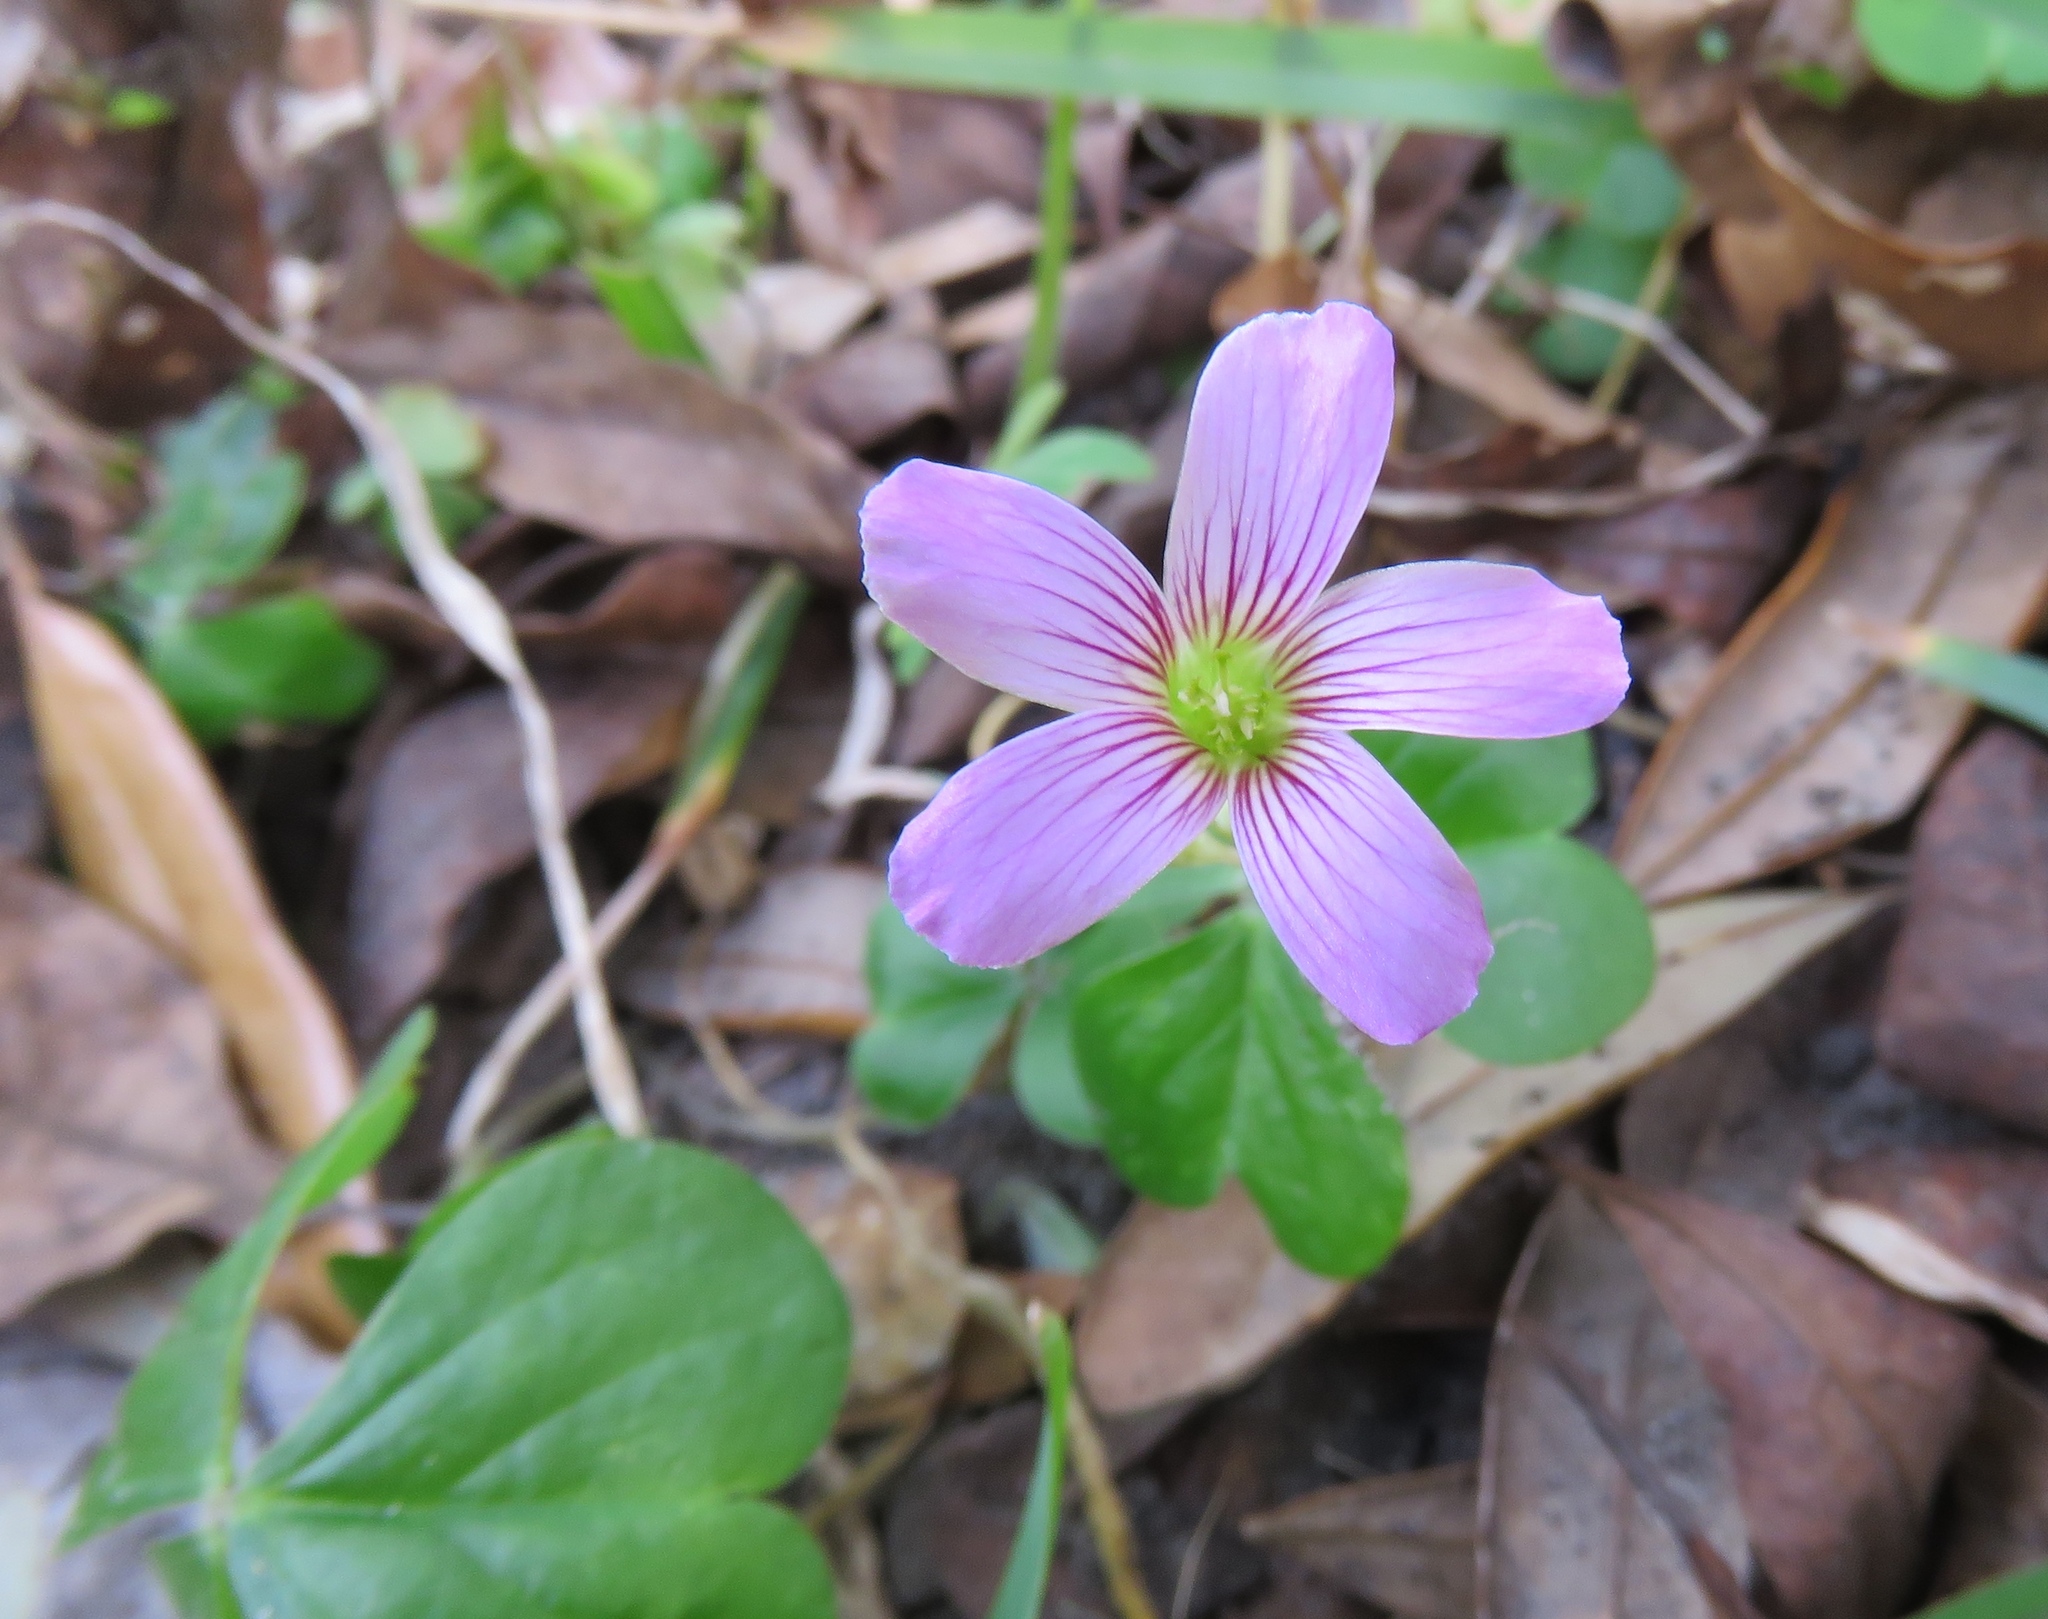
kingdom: Plantae
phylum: Tracheophyta
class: Magnoliopsida
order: Oxalidales
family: Oxalidaceae
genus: Oxalis
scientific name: Oxalis debilis
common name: Large-flowered pink-sorrel
